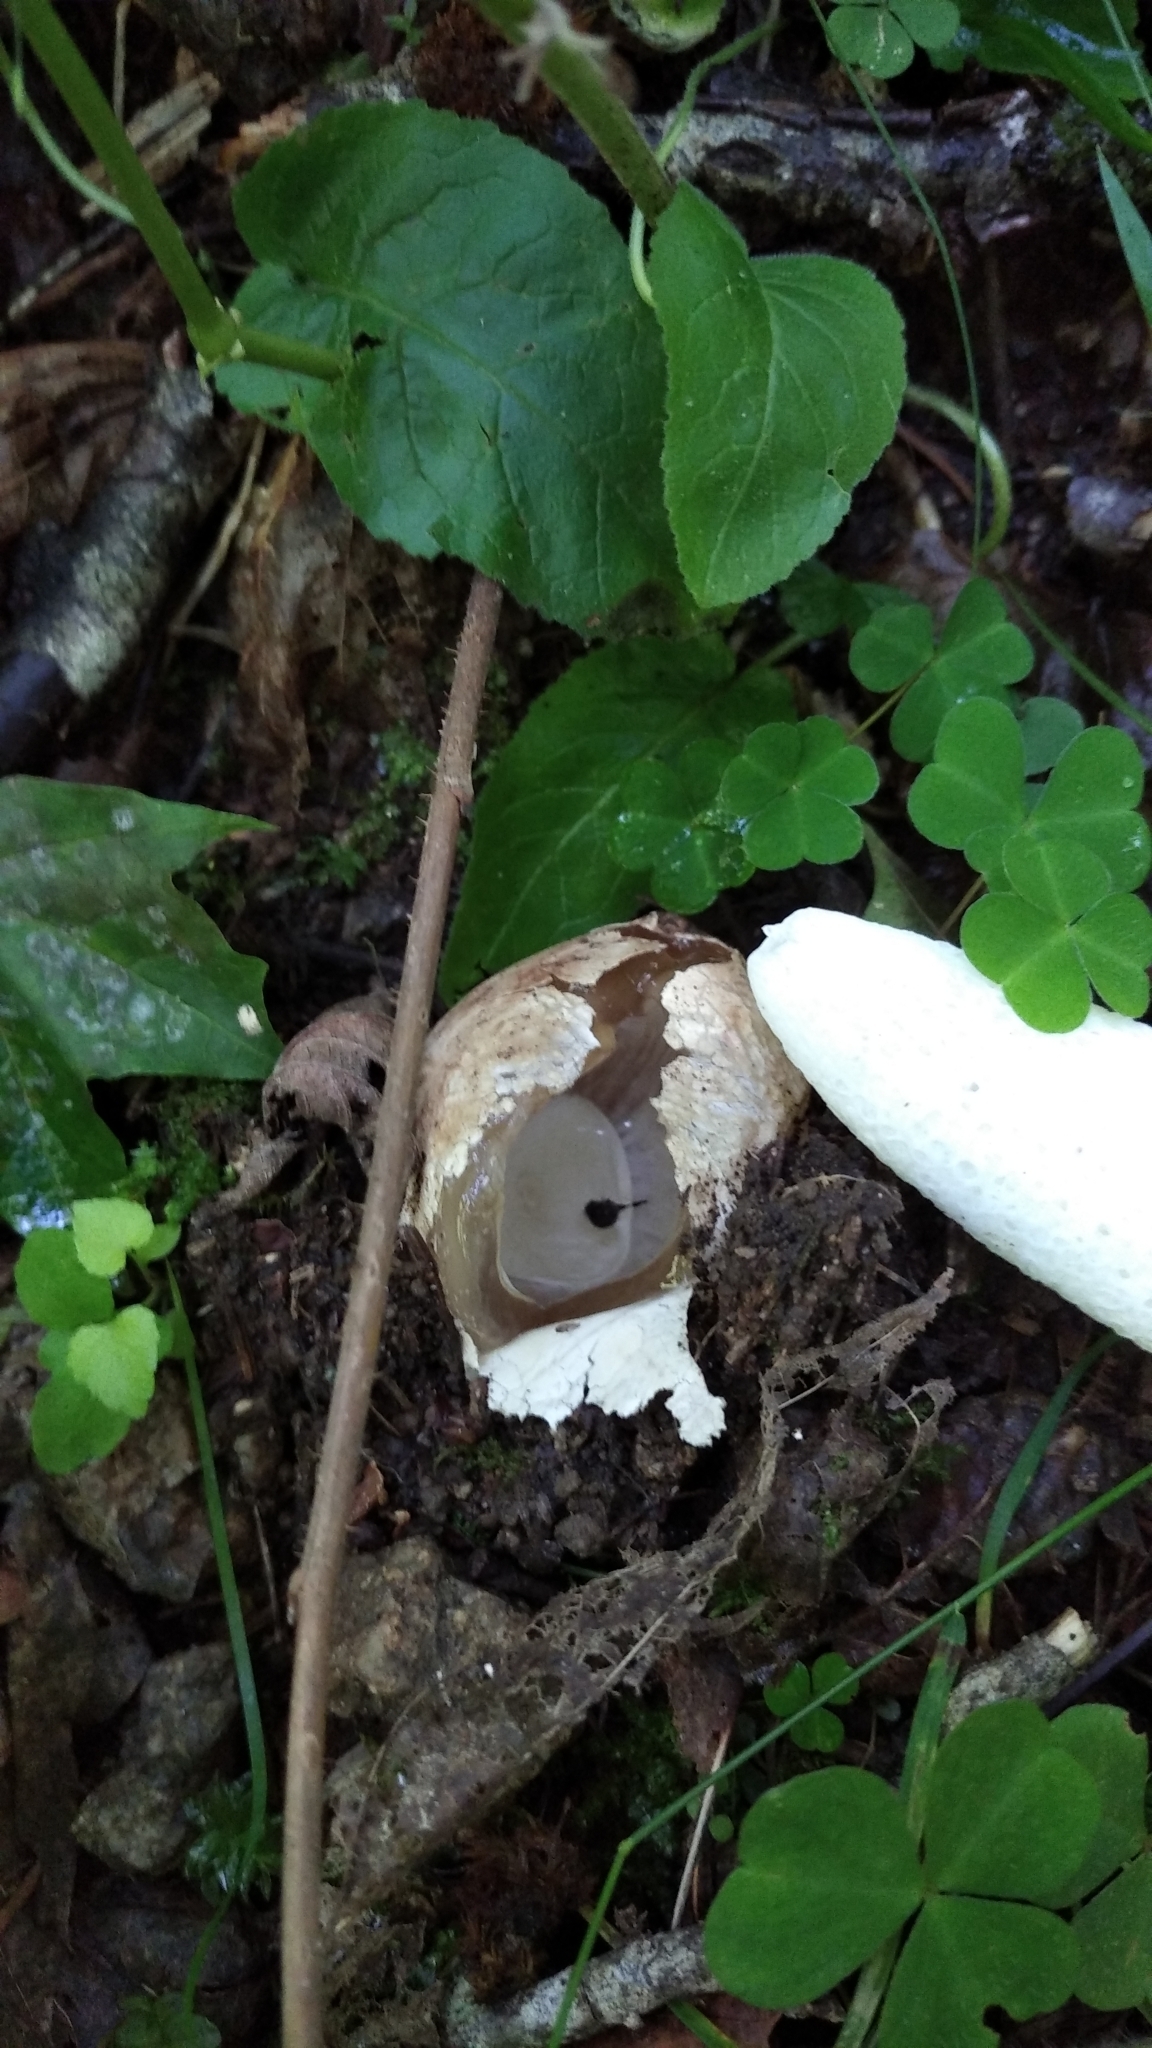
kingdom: Fungi
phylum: Basidiomycota
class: Agaricomycetes
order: Phallales
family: Phallaceae
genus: Phallus
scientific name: Phallus impudicus
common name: Common stinkhorn
